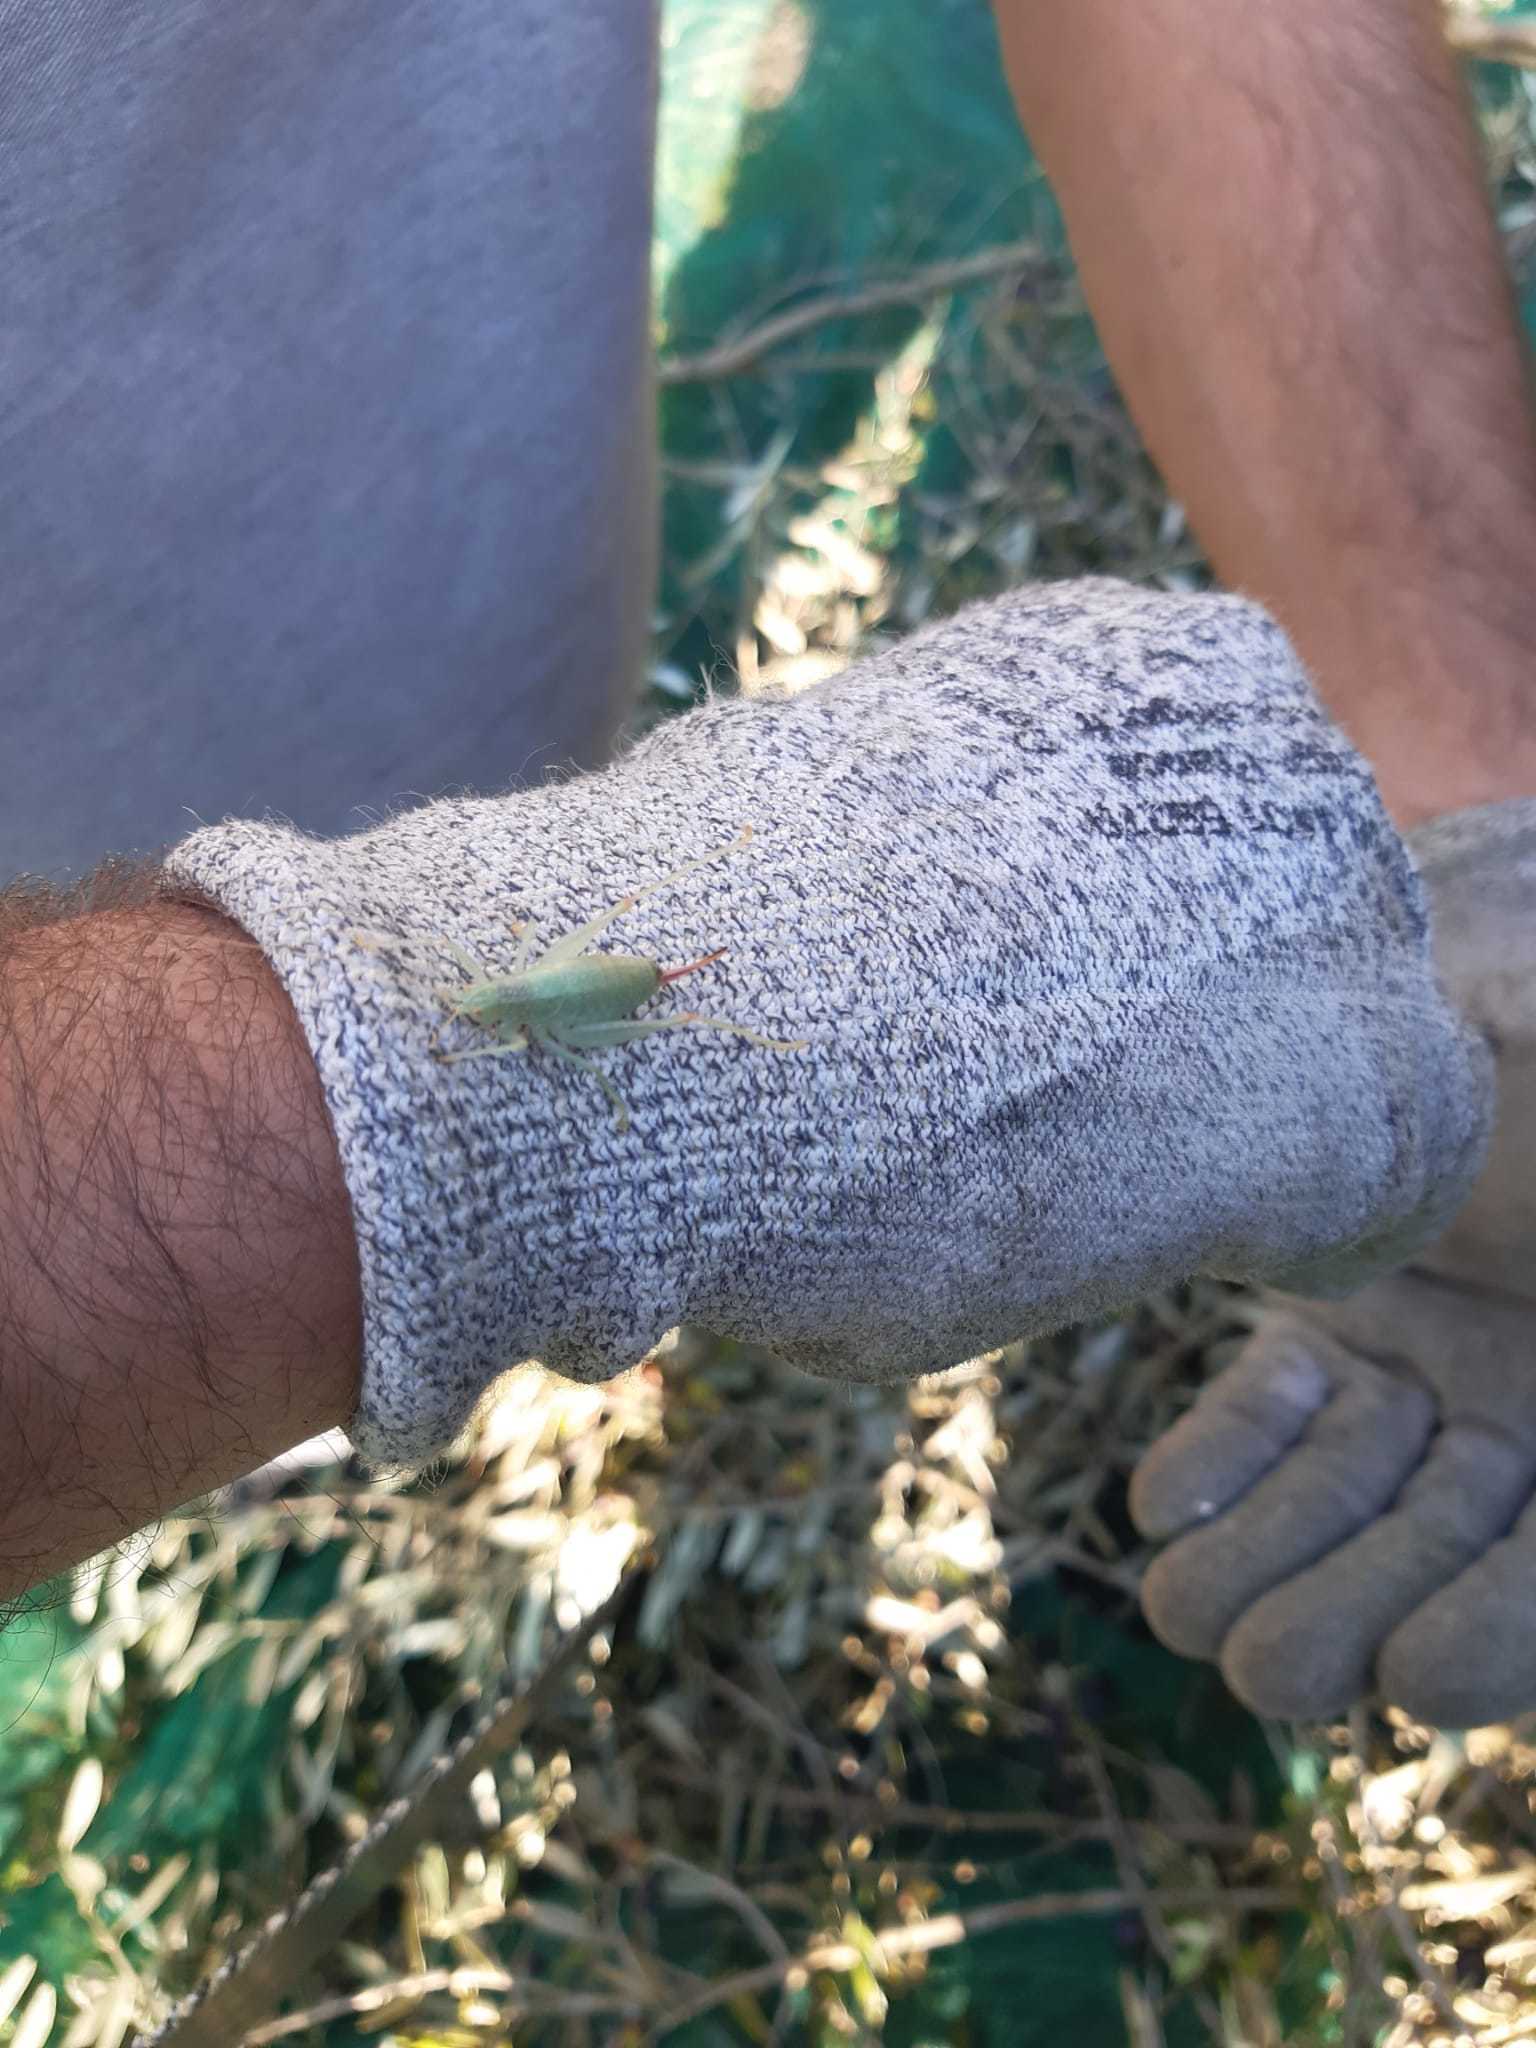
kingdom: Animalia
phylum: Arthropoda
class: Insecta
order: Orthoptera
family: Tettigoniidae
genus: Cyrtaspis
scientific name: Cyrtaspis scutata
